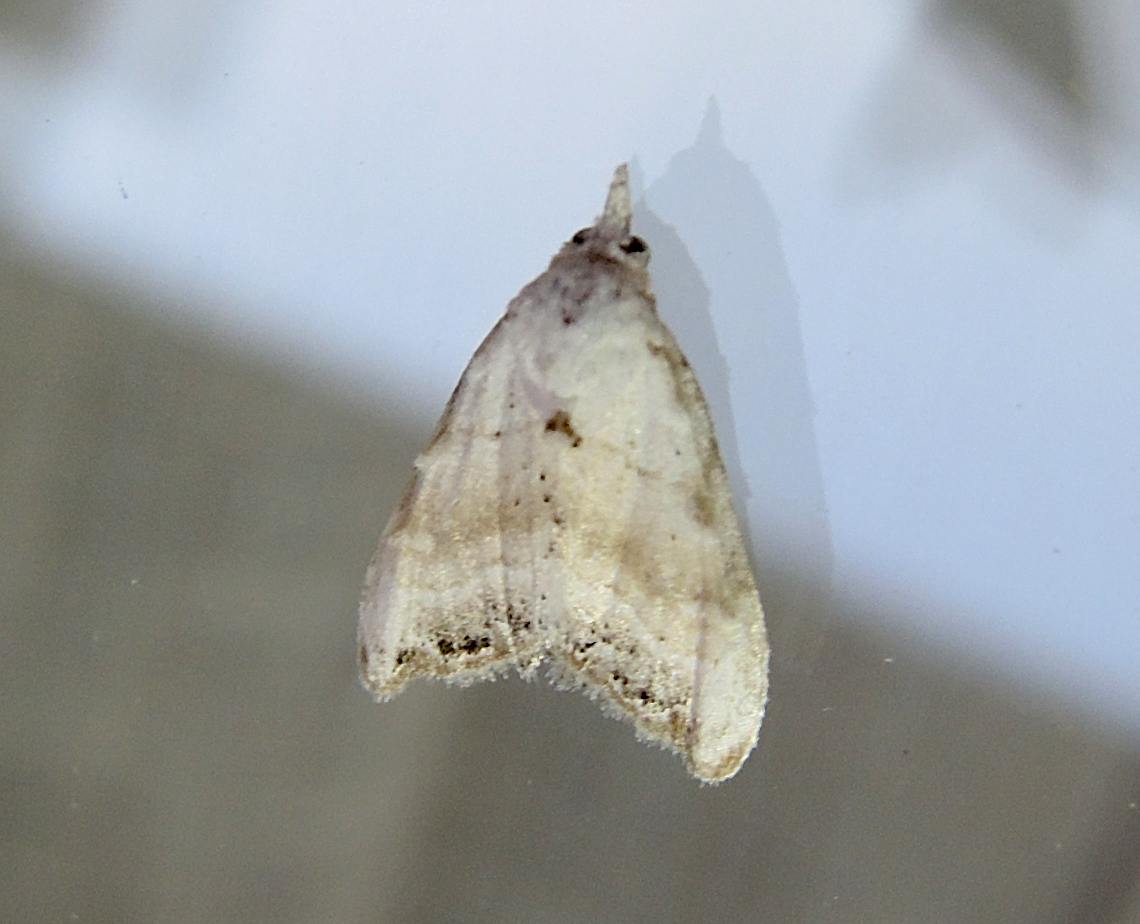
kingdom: Animalia
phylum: Arthropoda
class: Insecta
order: Lepidoptera
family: Nolidae
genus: Nola
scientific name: Nola chlamitulalis
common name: Jersey black arches
